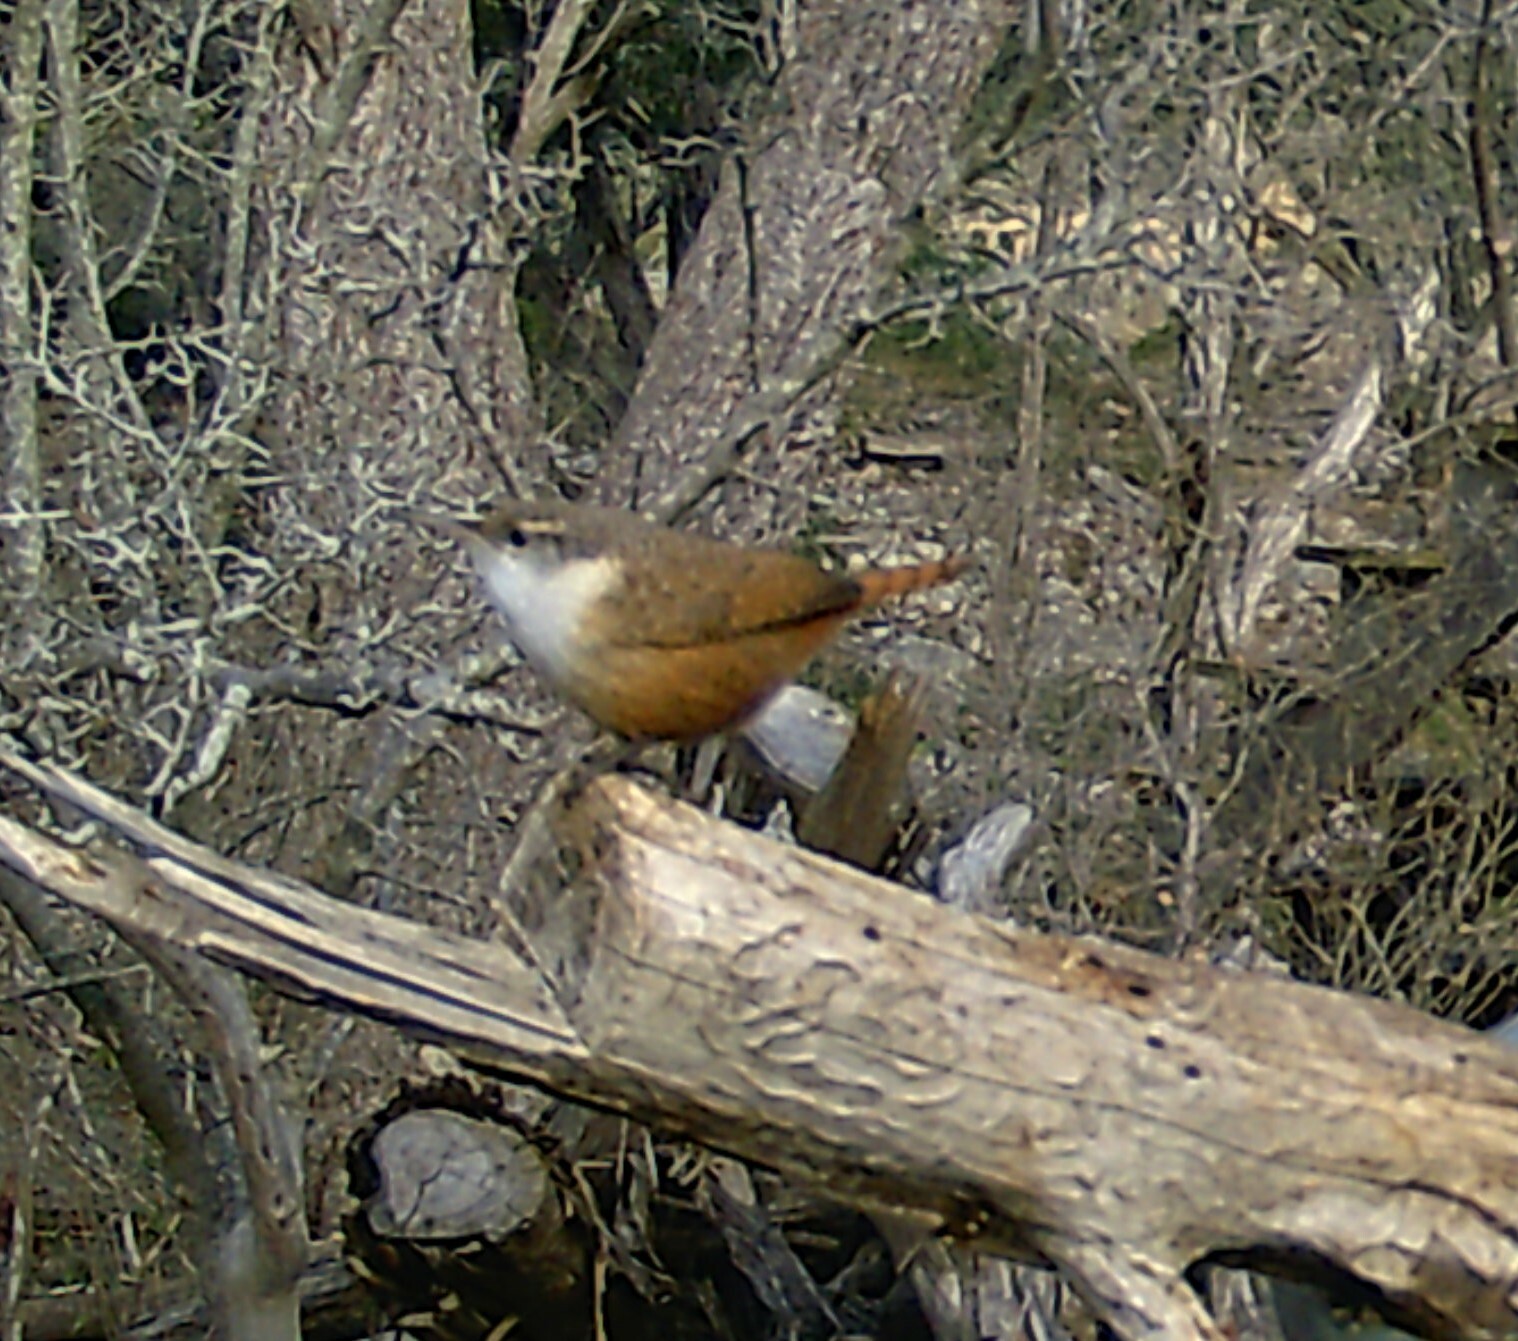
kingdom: Animalia
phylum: Chordata
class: Aves
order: Passeriformes
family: Troglodytidae
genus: Catherpes
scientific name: Catherpes mexicanus
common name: Canyon wren
